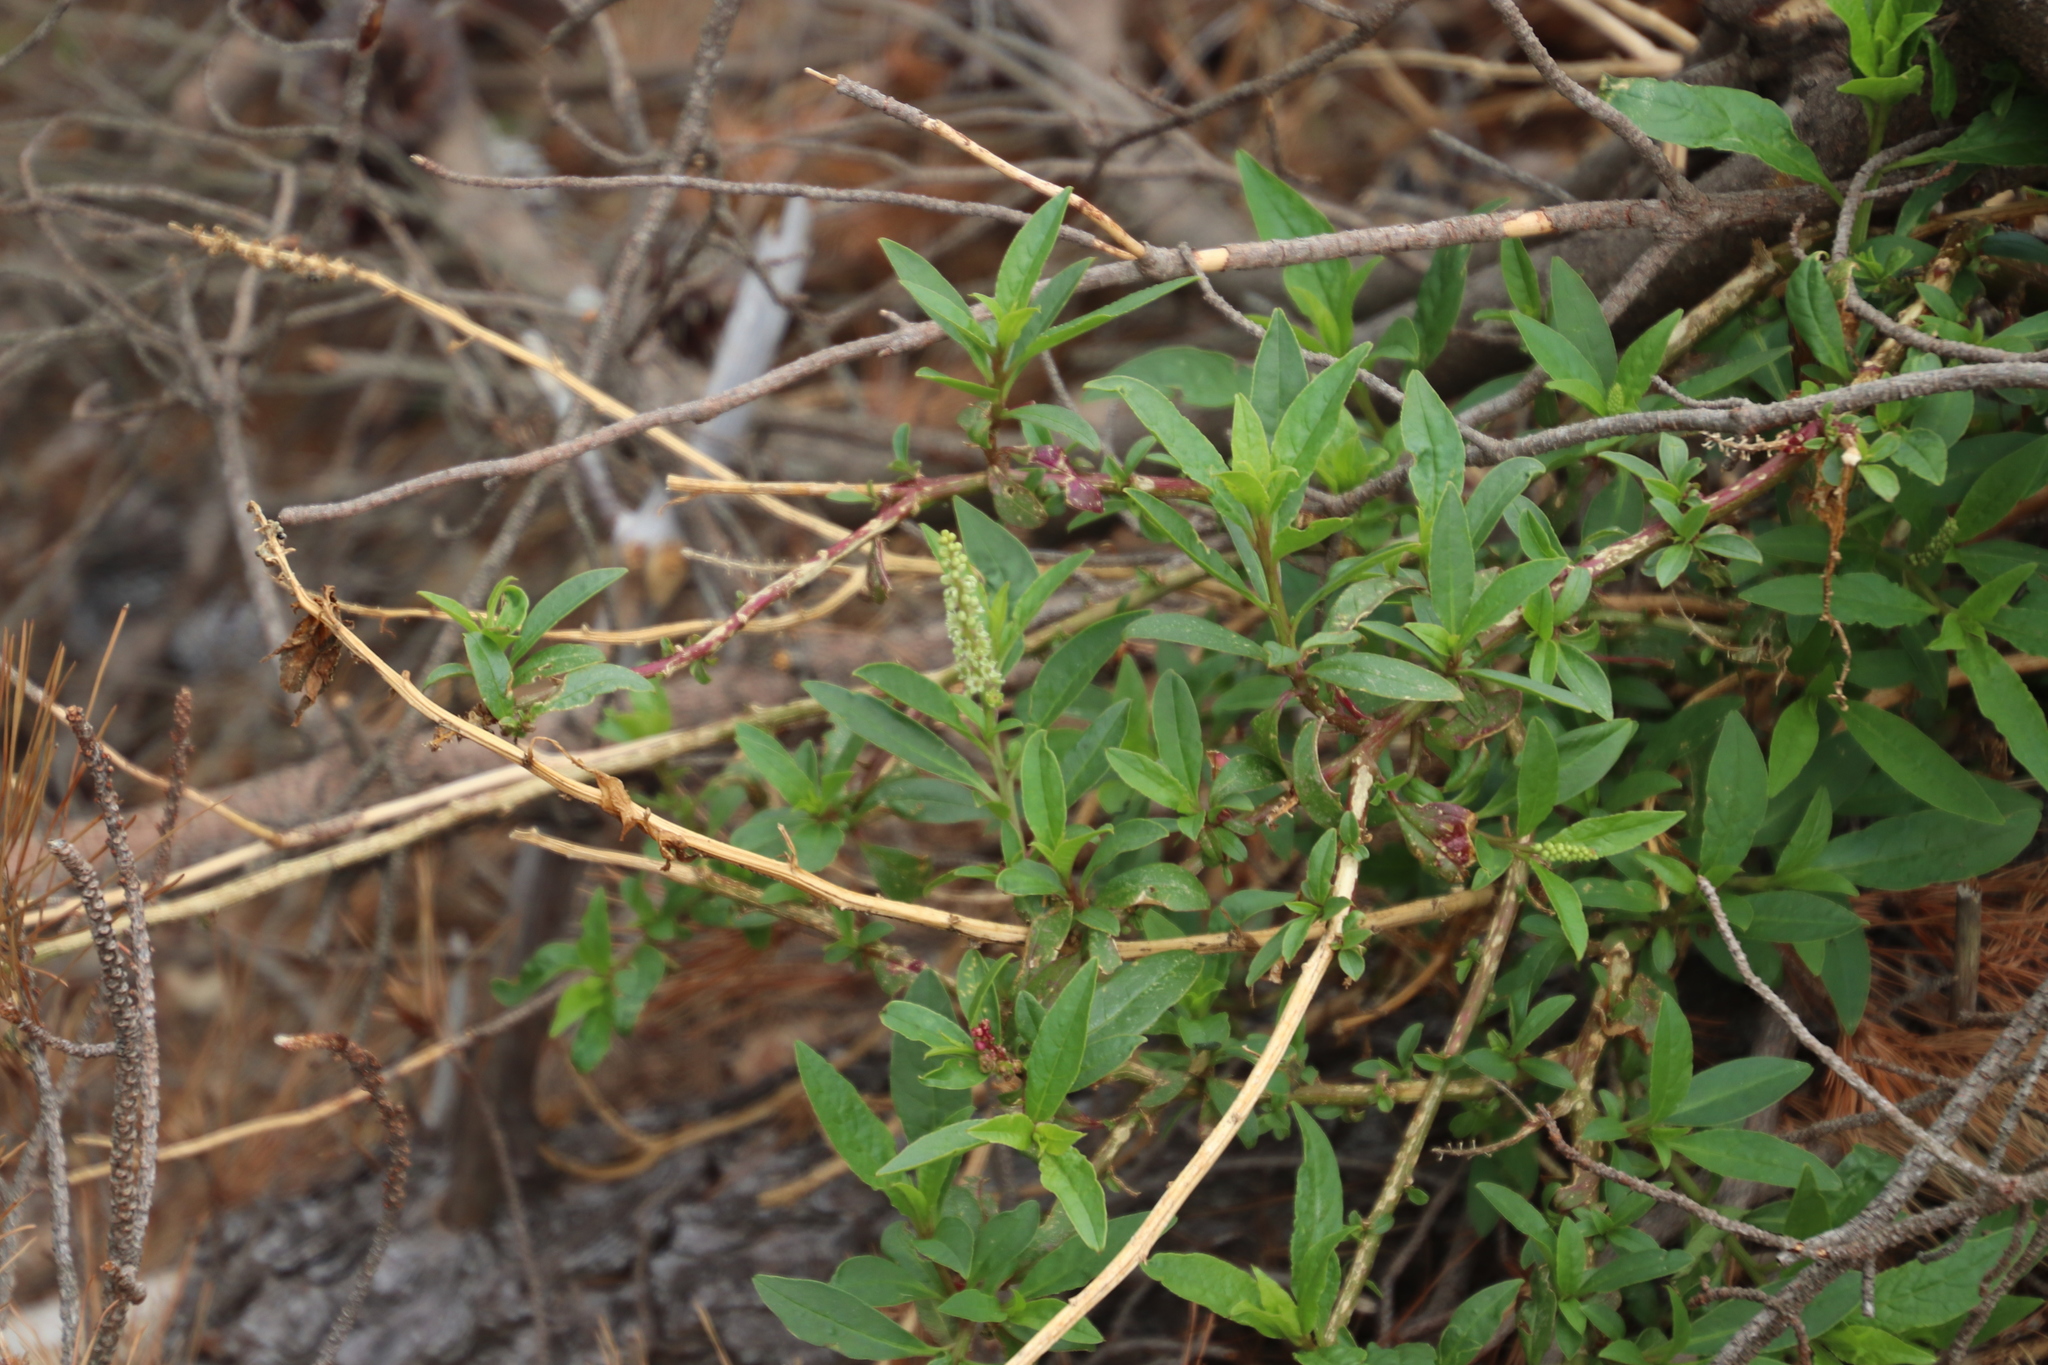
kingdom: Plantae
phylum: Tracheophyta
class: Magnoliopsida
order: Caryophyllales
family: Phytolaccaceae
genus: Phytolacca
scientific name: Phytolacca icosandra
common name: Button pokeweed
